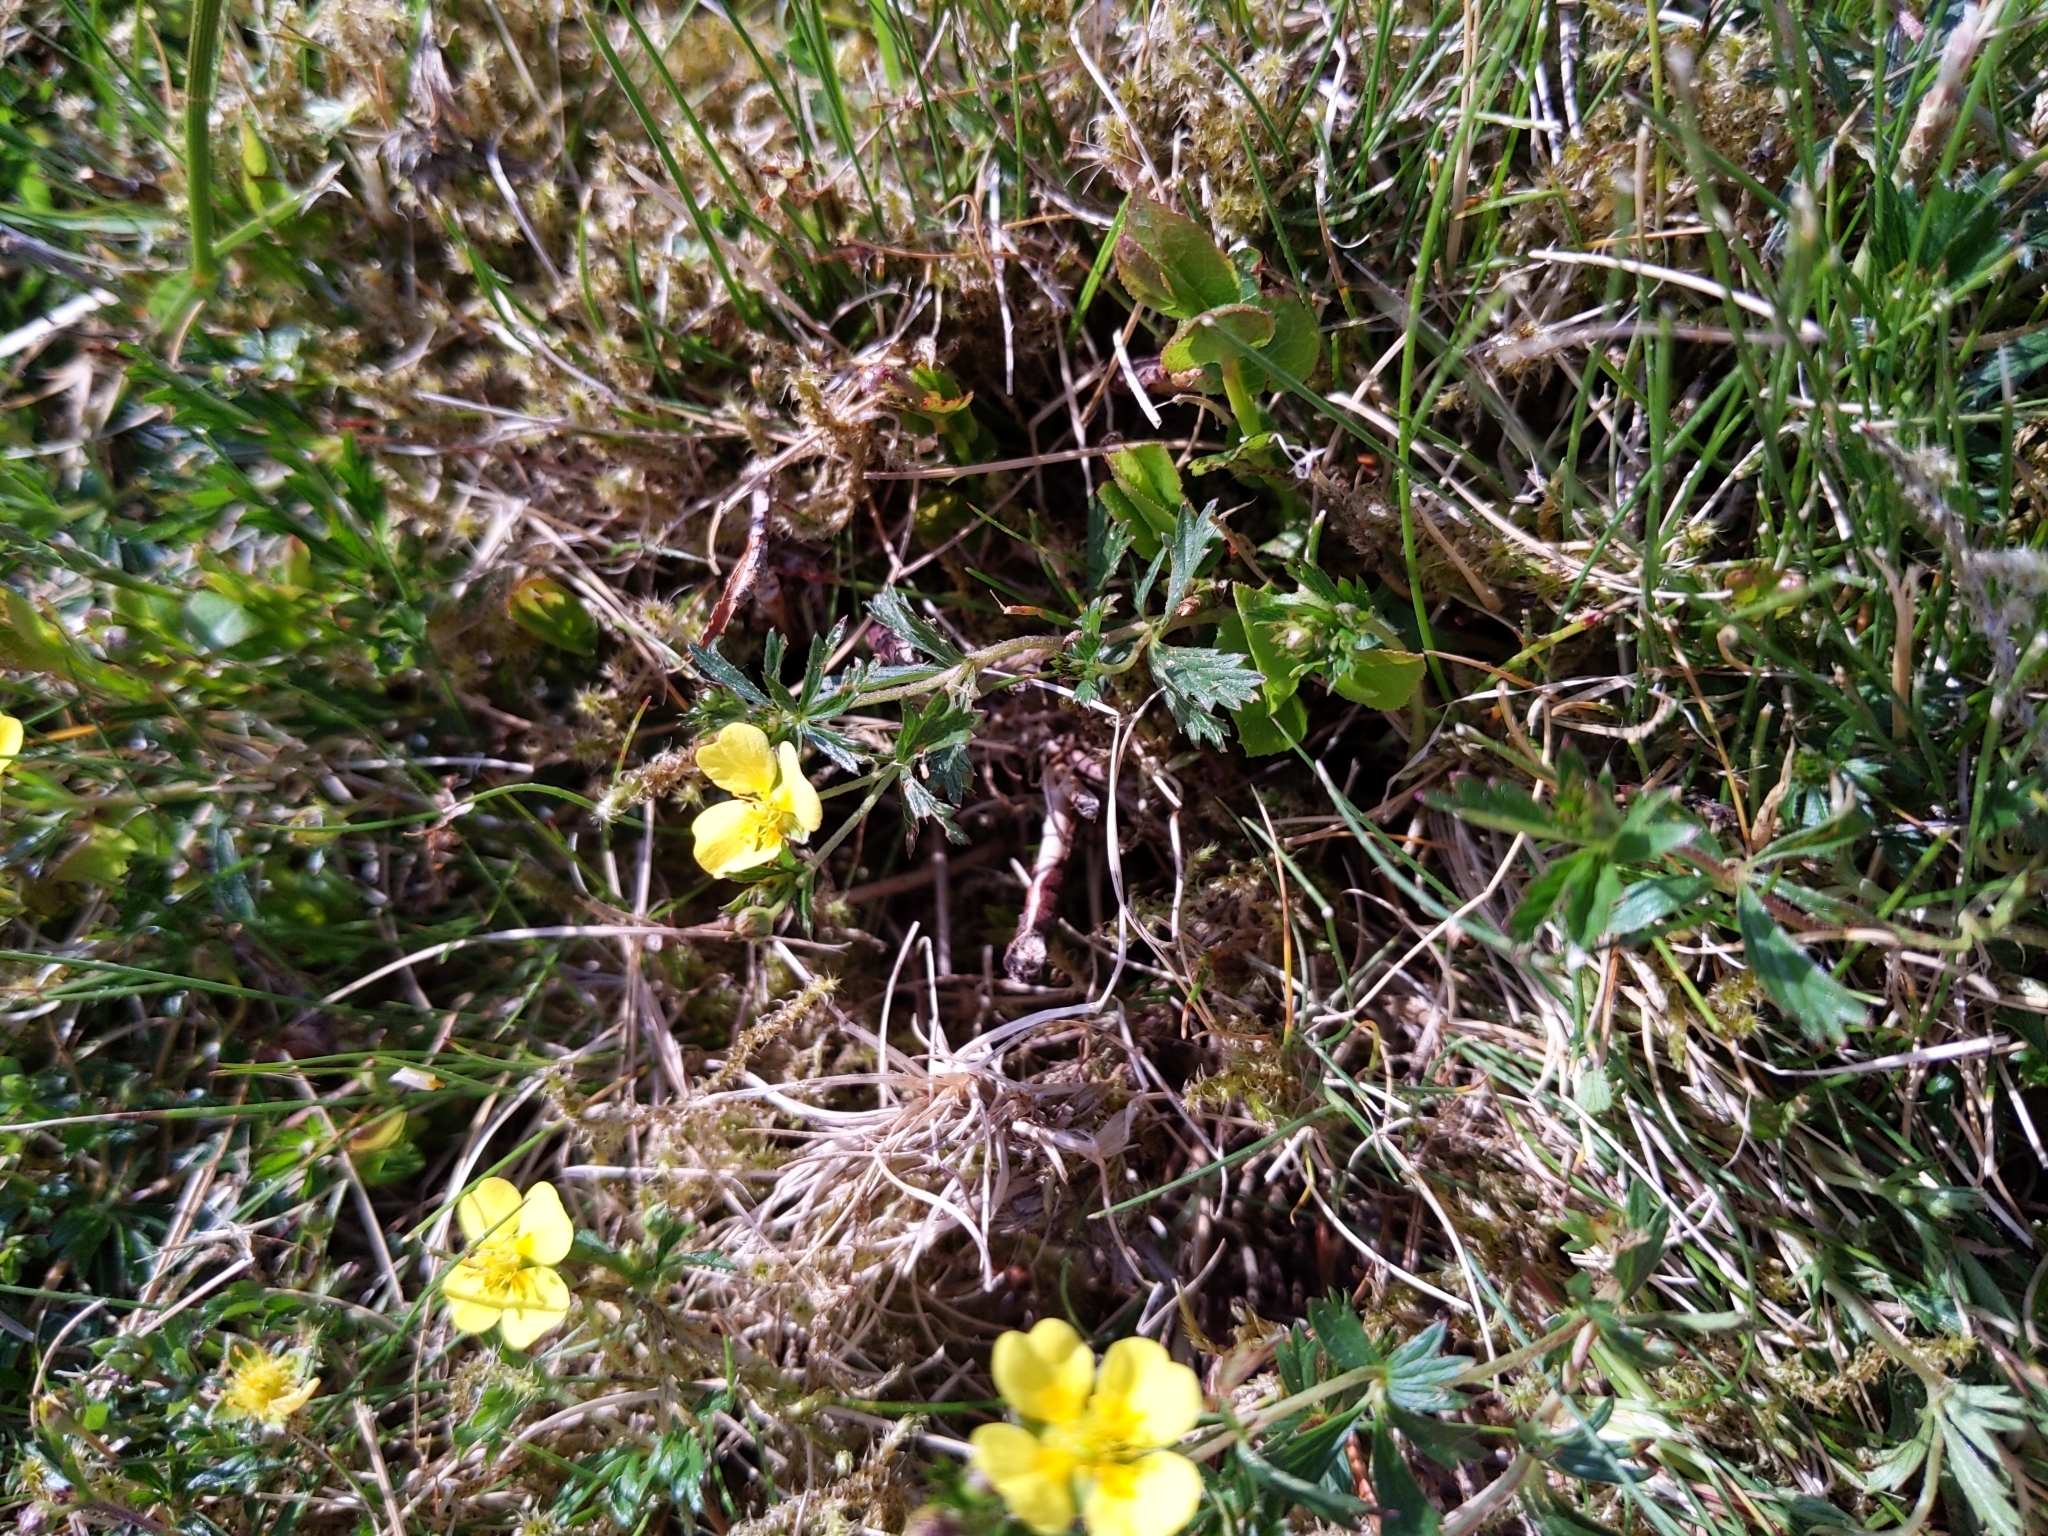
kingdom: Plantae
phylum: Tracheophyta
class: Magnoliopsida
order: Rosales
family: Rosaceae
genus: Potentilla
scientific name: Potentilla erecta
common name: Tormentil
